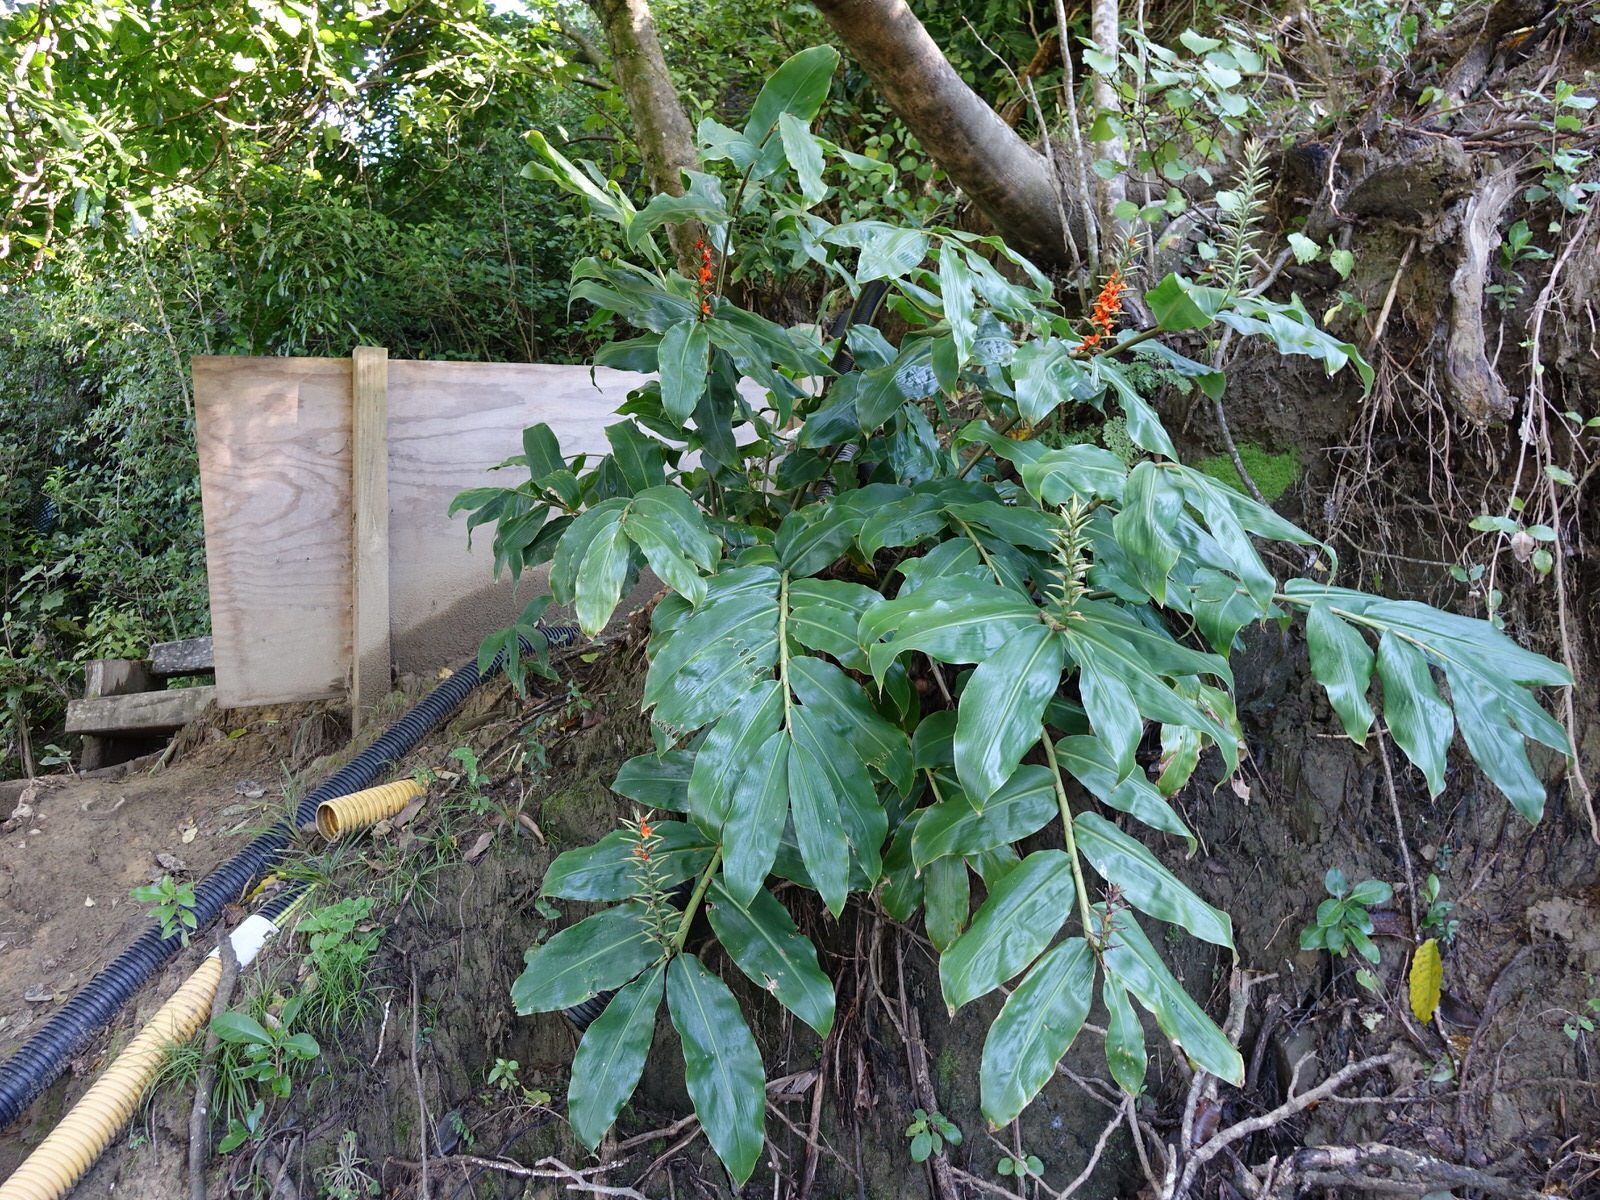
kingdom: Plantae
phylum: Tracheophyta
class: Liliopsida
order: Zingiberales
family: Zingiberaceae
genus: Hedychium
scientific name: Hedychium gardnerianum
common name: Himalayan ginger
